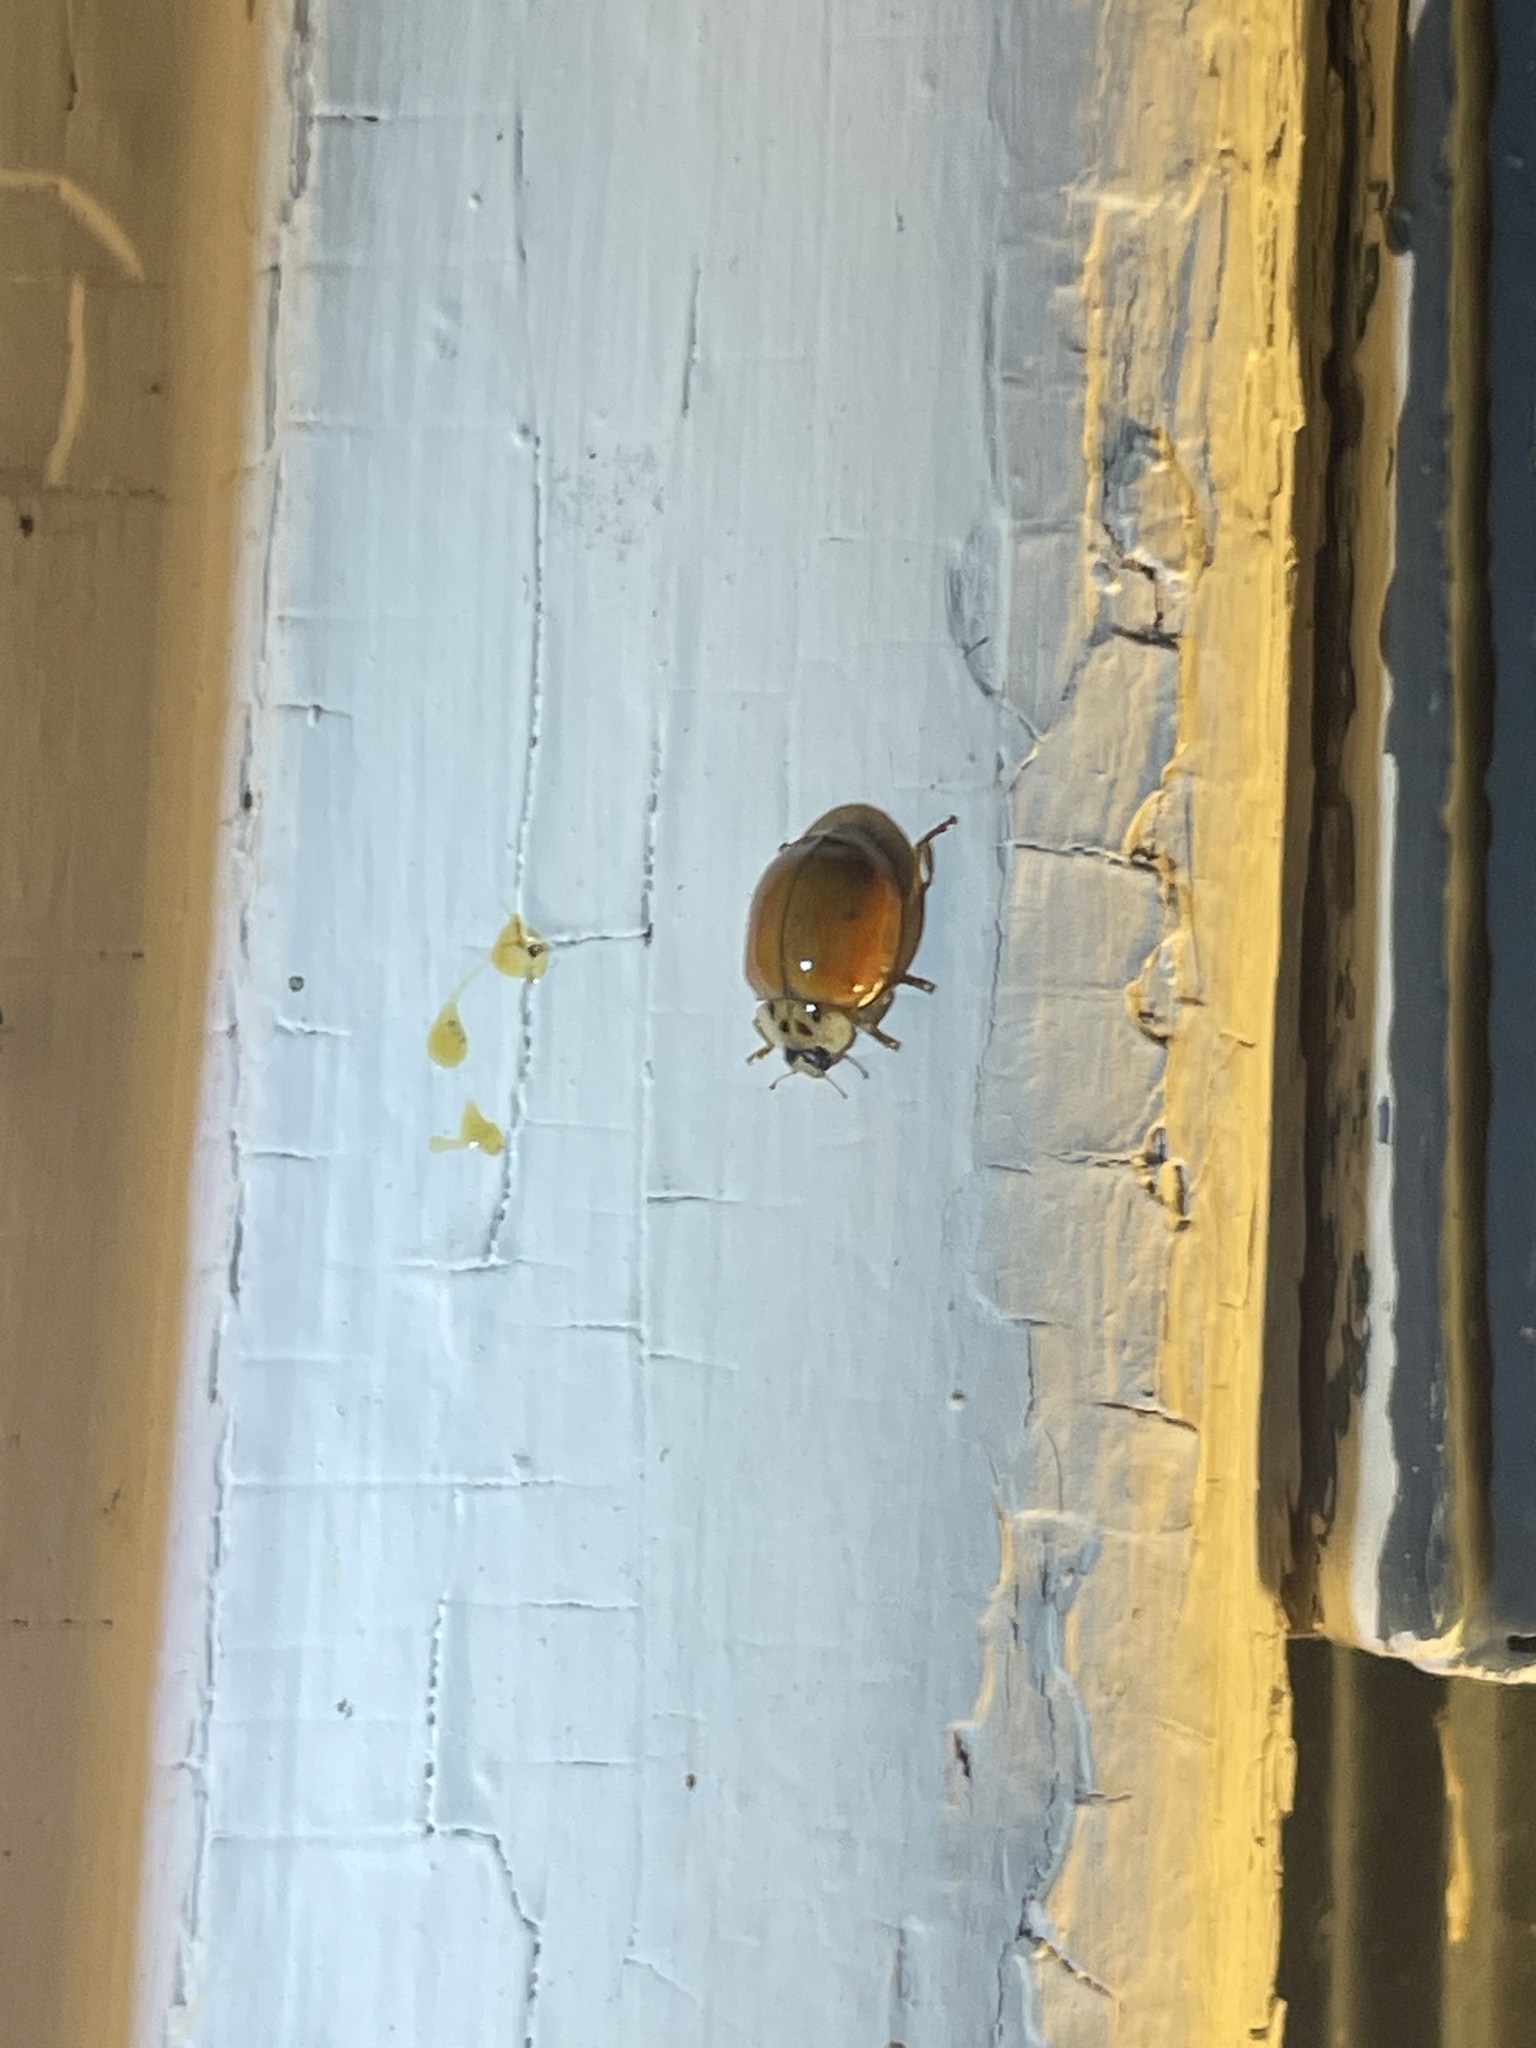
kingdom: Animalia
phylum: Arthropoda
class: Insecta
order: Coleoptera
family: Coccinellidae
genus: Harmonia
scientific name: Harmonia axyridis
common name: Harlequin ladybird
